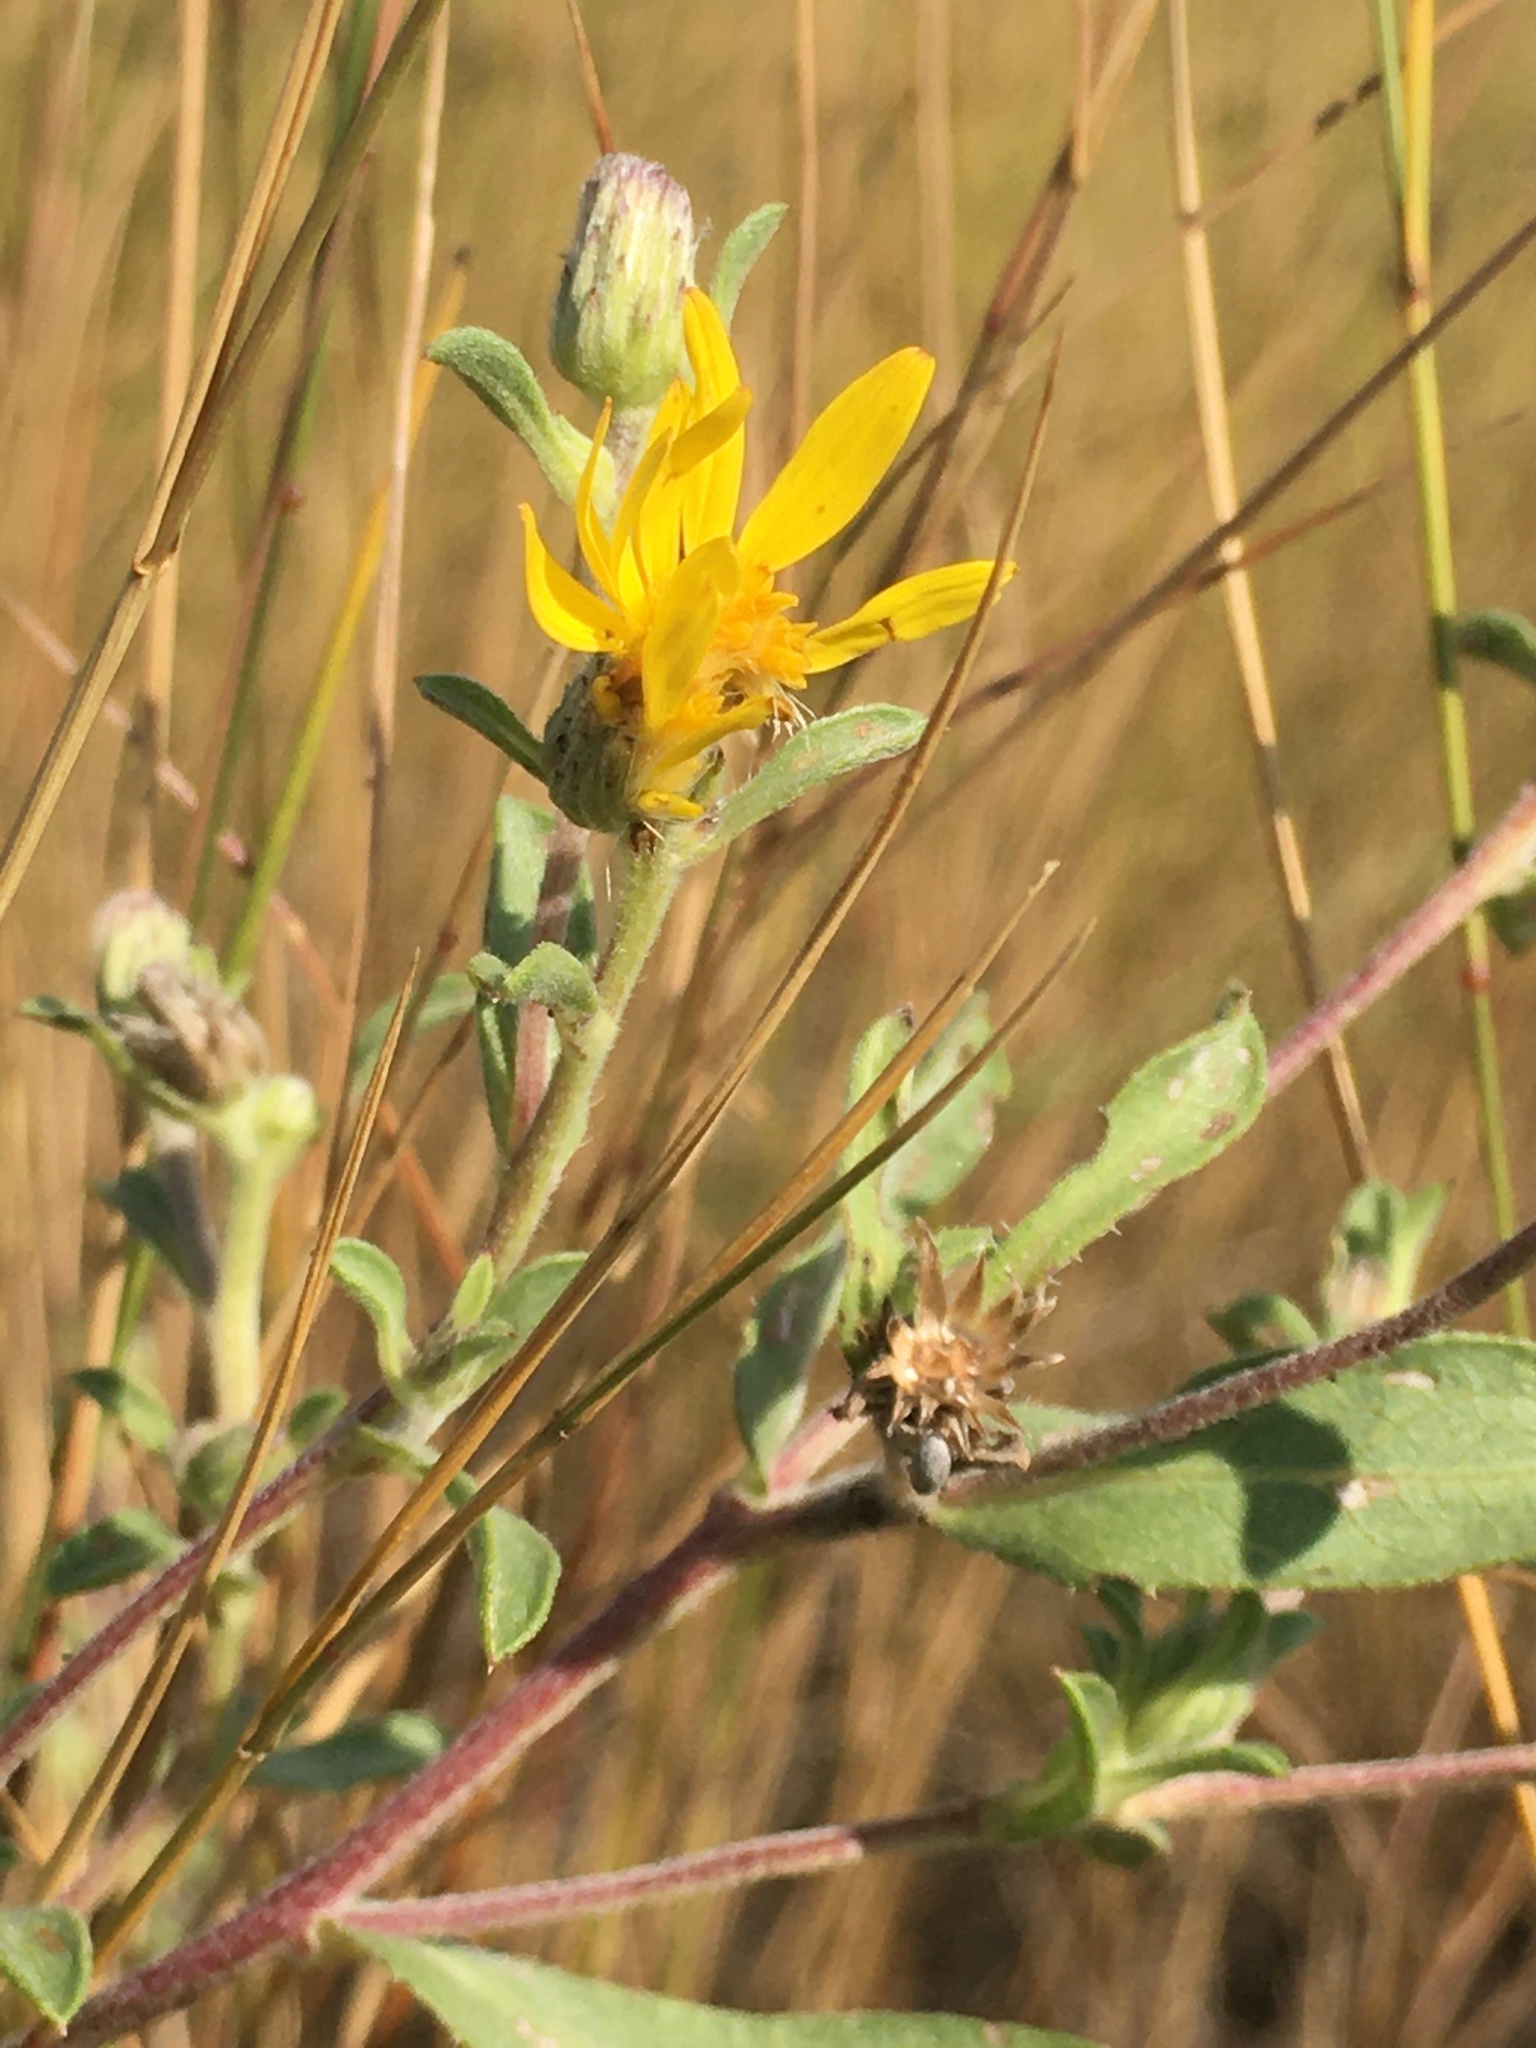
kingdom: Plantae
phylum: Tracheophyta
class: Magnoliopsida
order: Asterales
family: Asteraceae
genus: Heterotheca
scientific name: Heterotheca villosa
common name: Hairy false goldenaster
